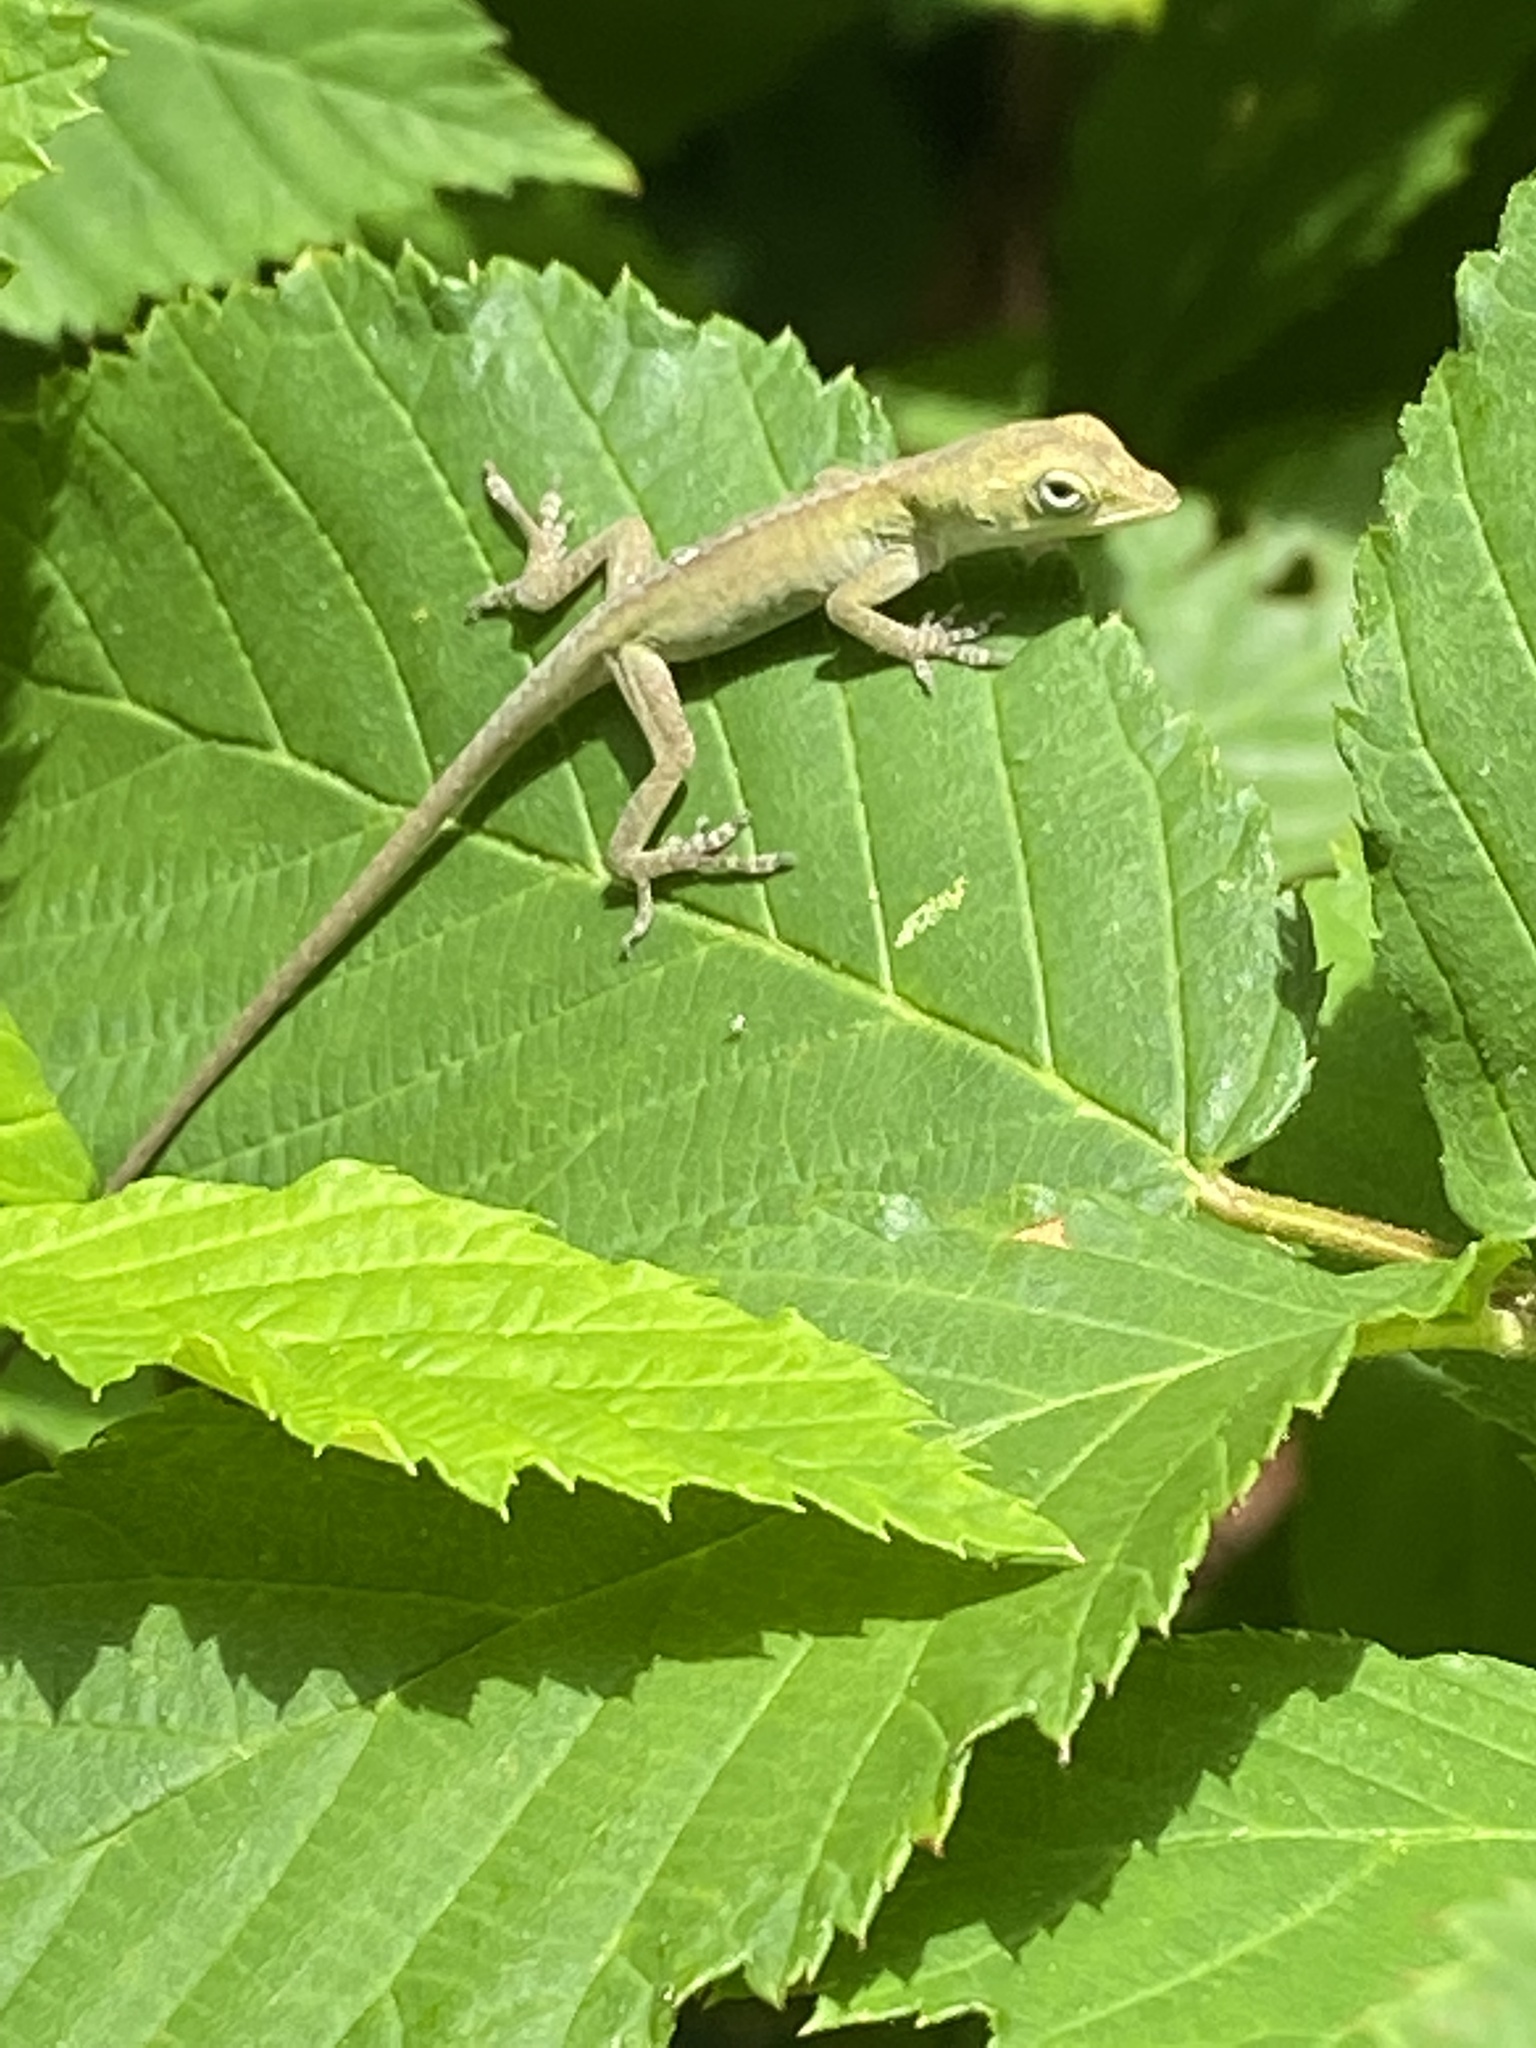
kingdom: Animalia
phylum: Chordata
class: Squamata
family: Dactyloidae
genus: Anolis
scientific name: Anolis carolinensis
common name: Green anole
